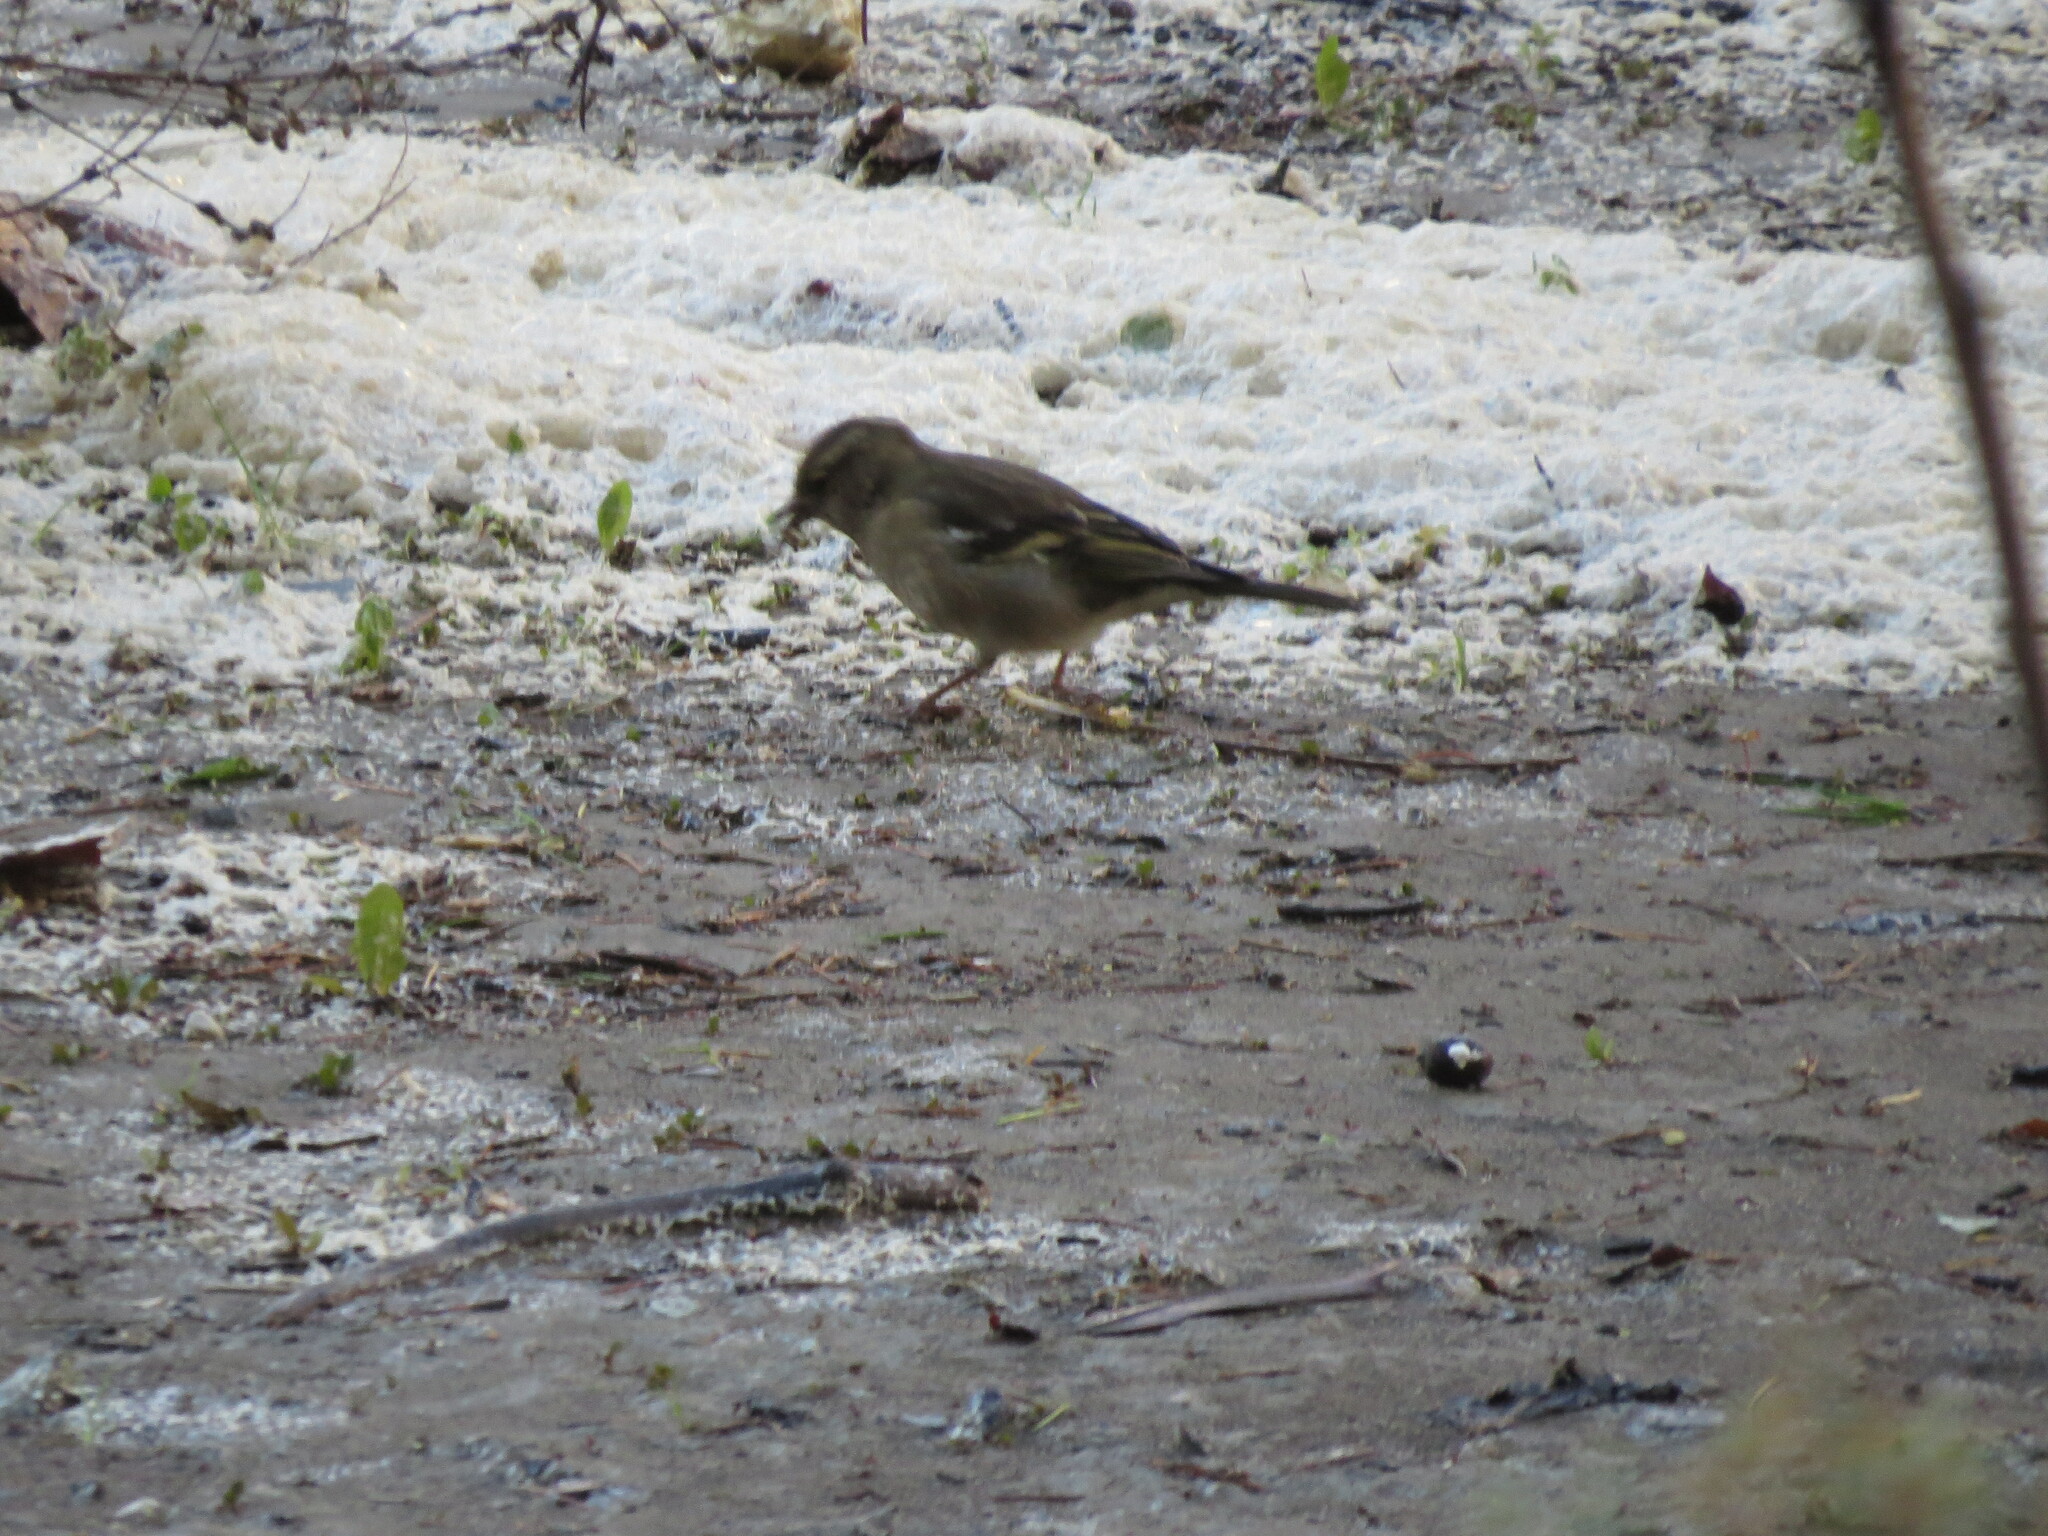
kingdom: Animalia
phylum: Chordata
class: Aves
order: Passeriformes
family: Fringillidae
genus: Fringilla
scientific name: Fringilla coelebs
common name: Common chaffinch
